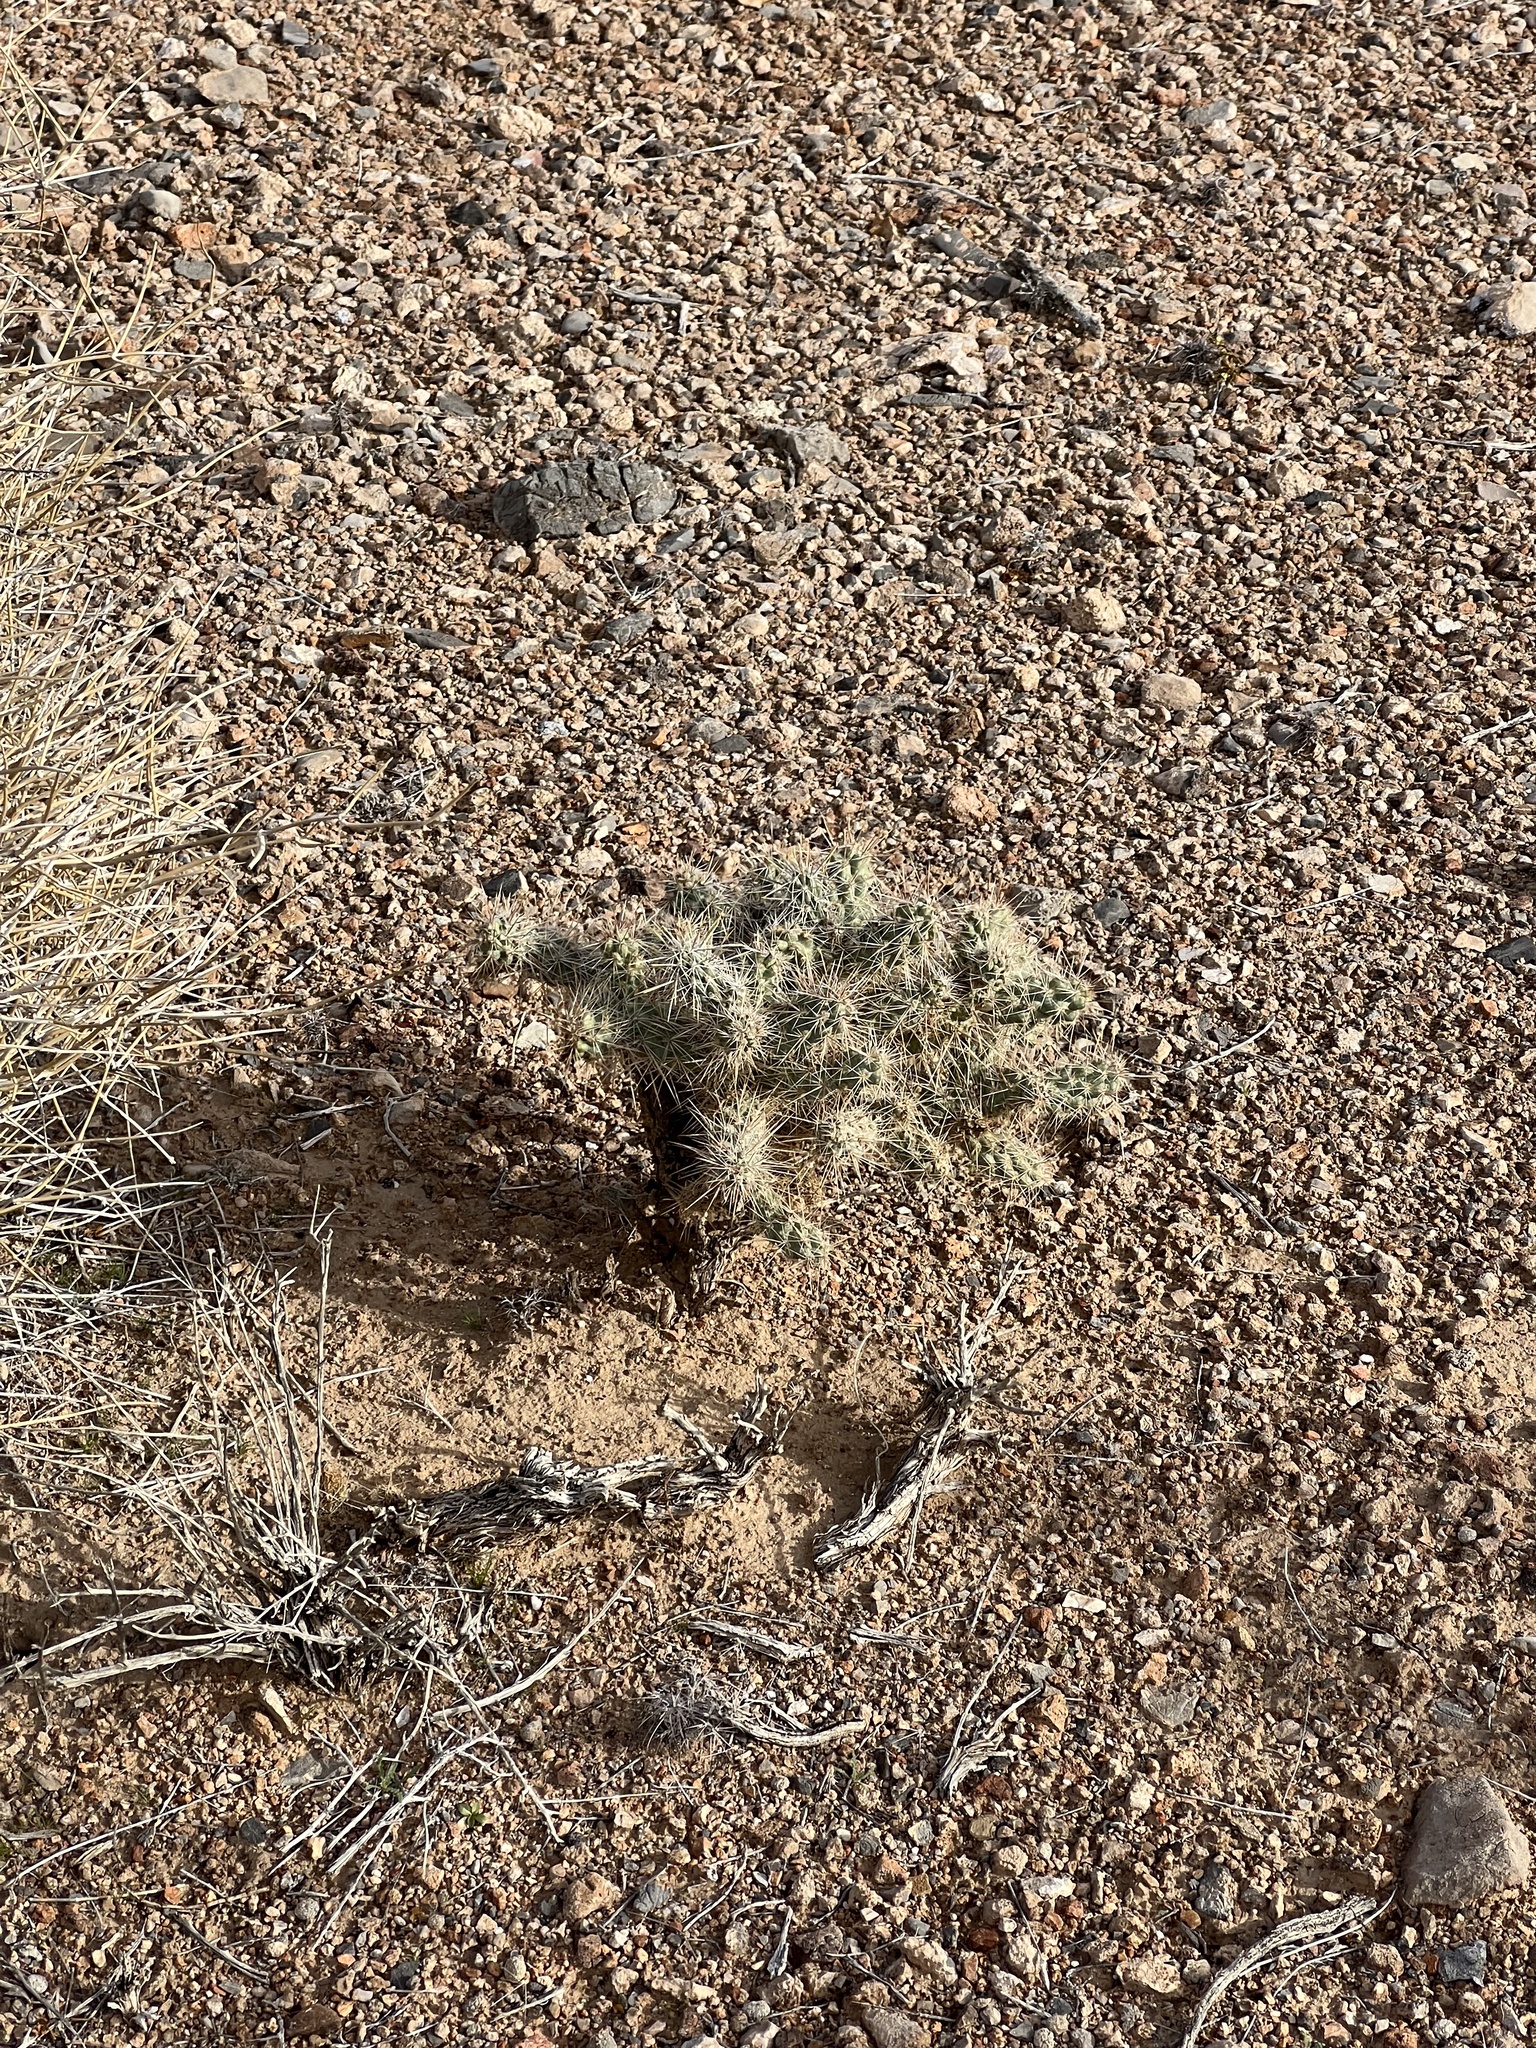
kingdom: Plantae
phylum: Tracheophyta
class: Magnoliopsida
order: Caryophyllales
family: Cactaceae
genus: Cylindropuntia
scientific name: Cylindropuntia echinocarpa
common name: Ground cholla
